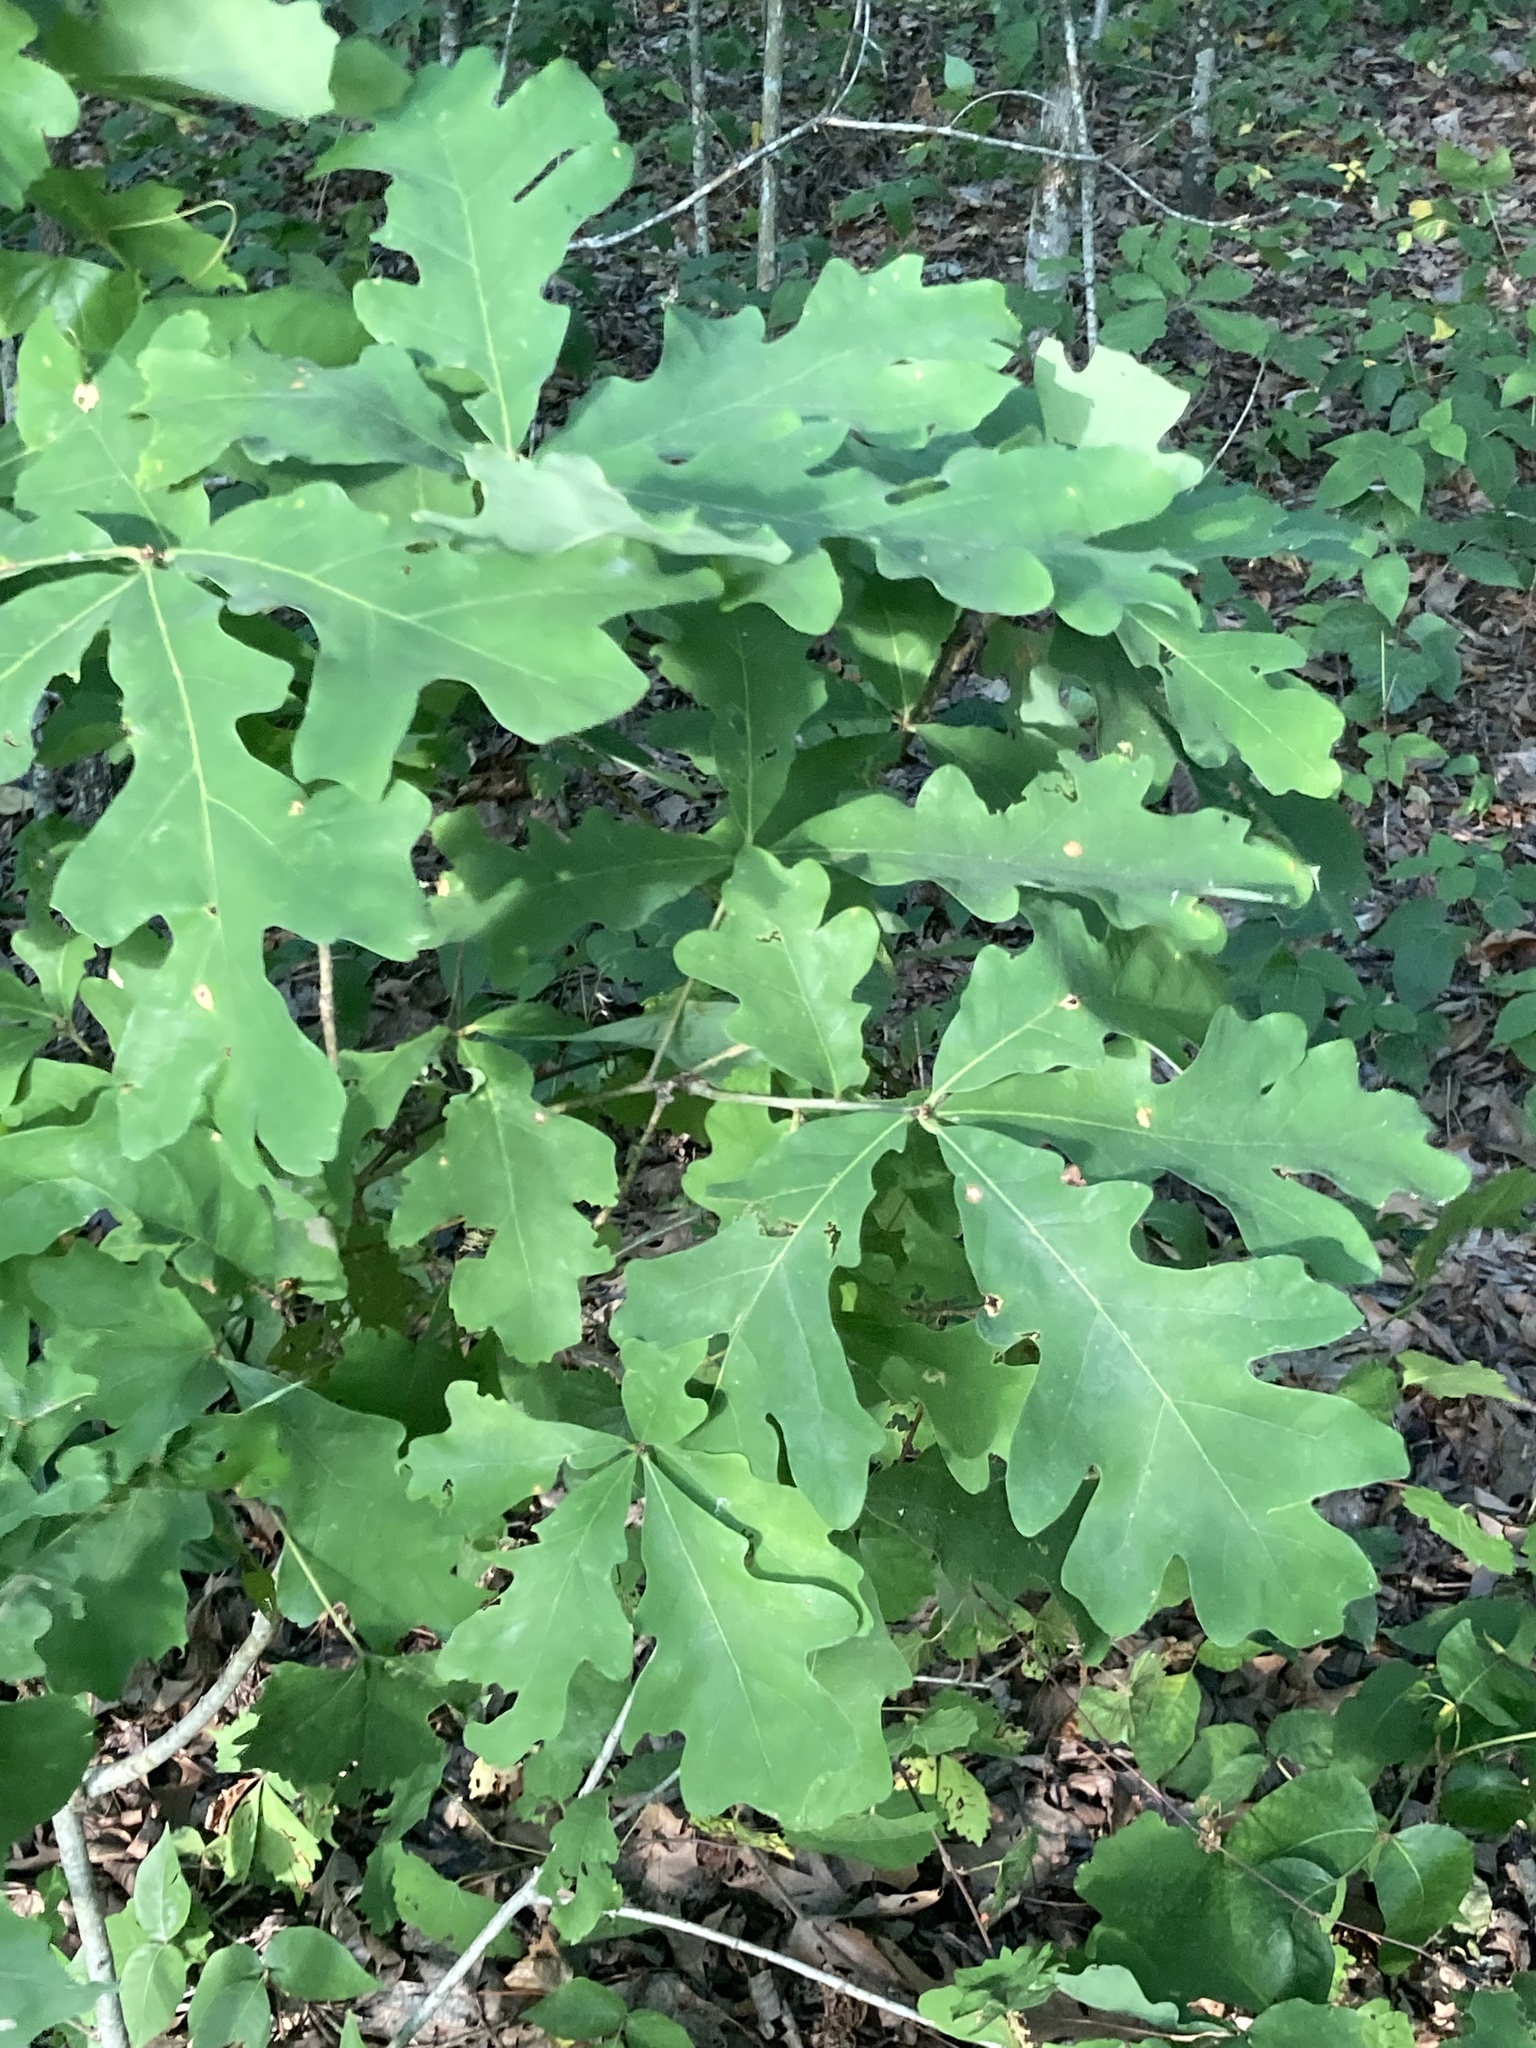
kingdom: Plantae
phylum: Tracheophyta
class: Magnoliopsida
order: Fagales
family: Fagaceae
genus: Quercus
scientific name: Quercus alba
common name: White oak
